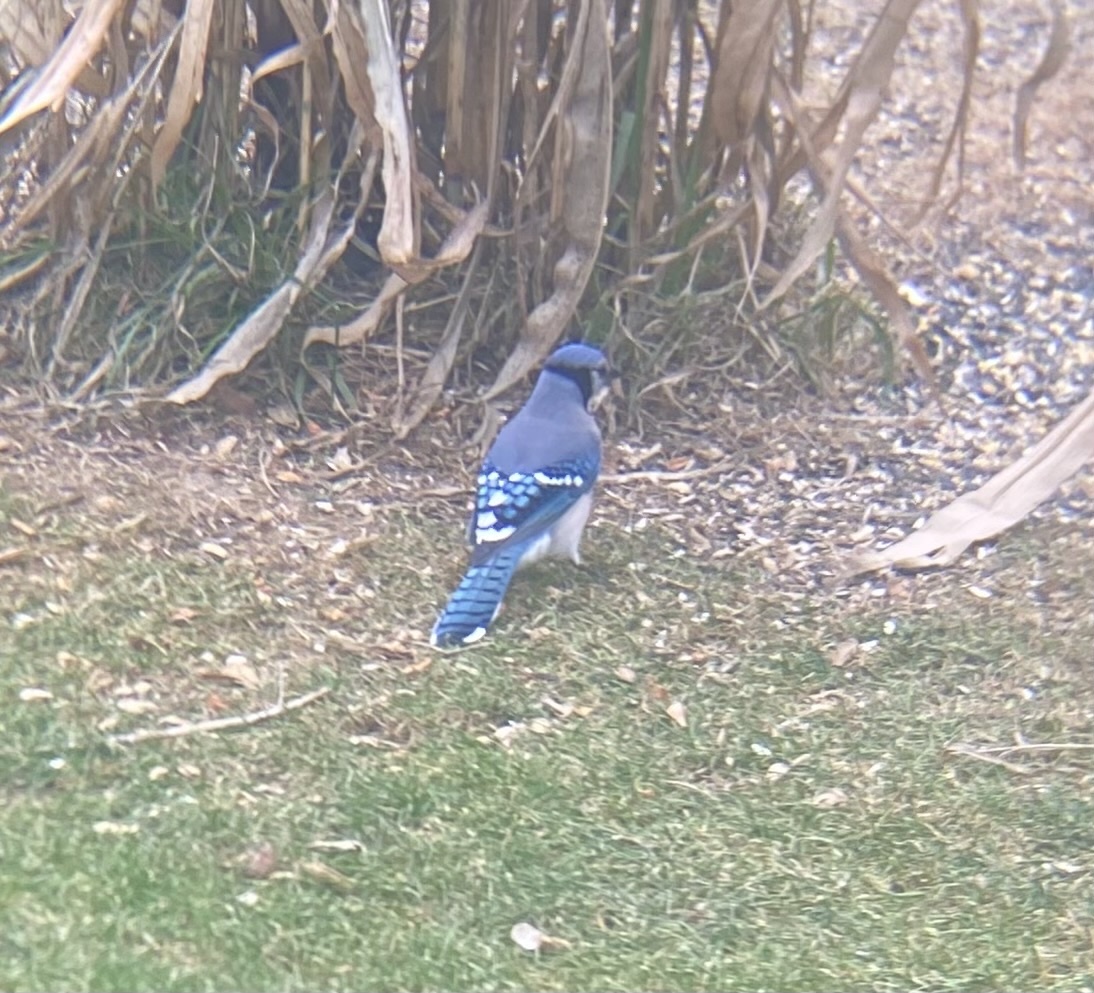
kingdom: Animalia
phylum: Chordata
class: Aves
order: Passeriformes
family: Corvidae
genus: Cyanocitta
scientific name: Cyanocitta cristata
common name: Blue jay
